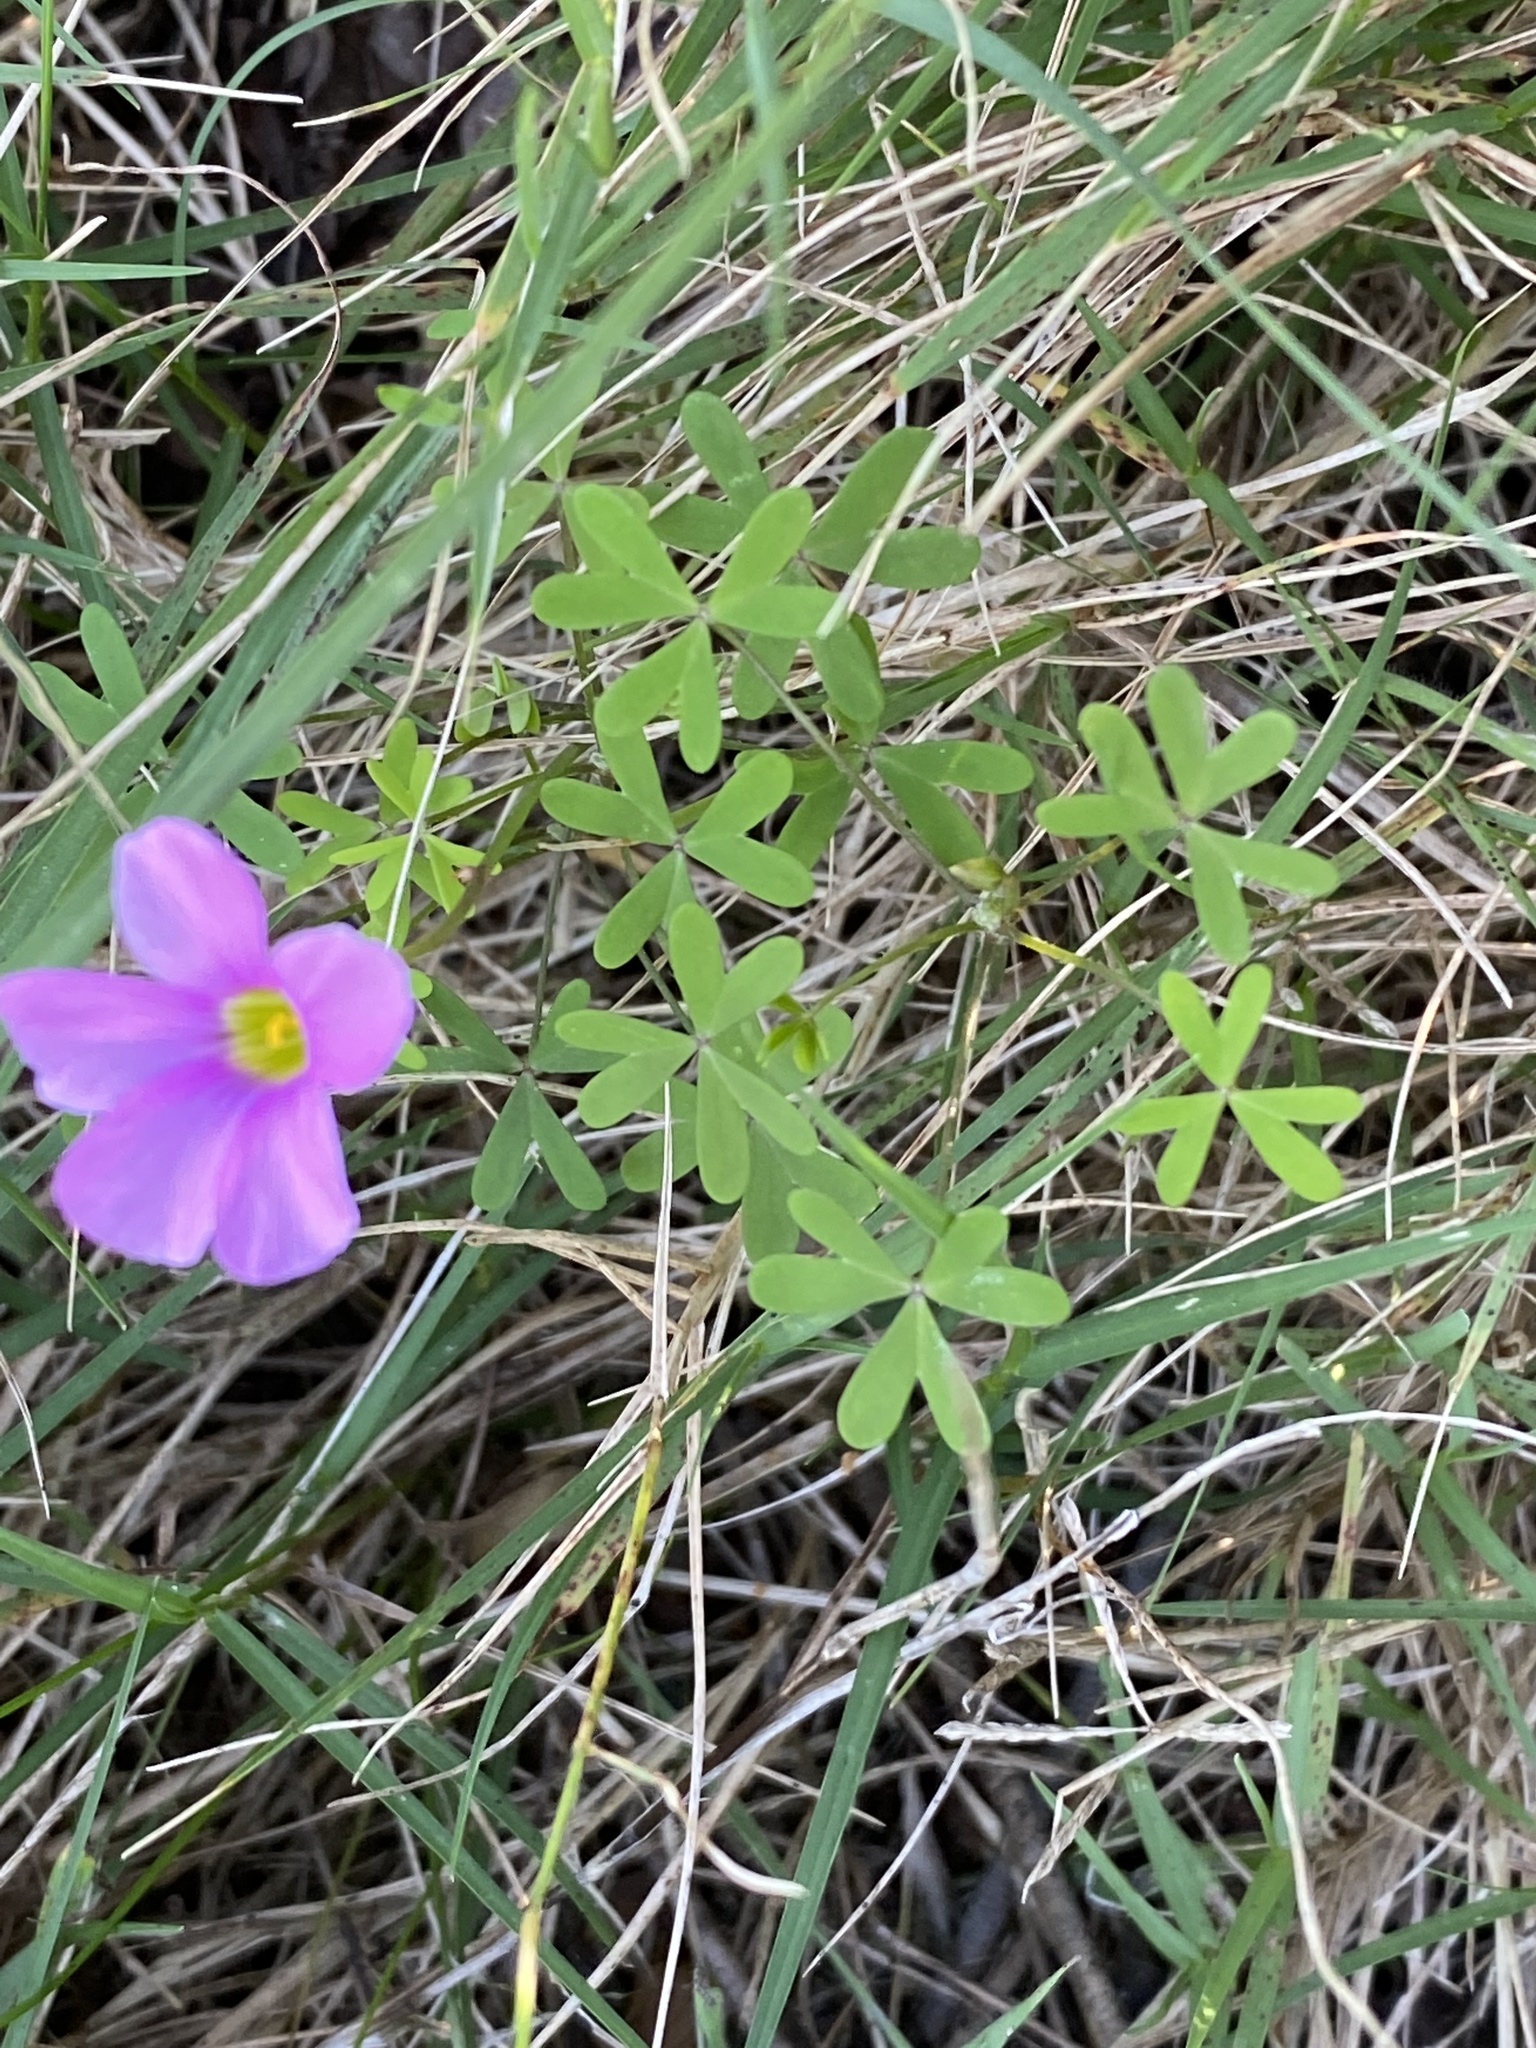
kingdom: Plantae
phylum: Tracheophyta
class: Magnoliopsida
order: Oxalidales
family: Oxalidaceae
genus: Oxalis
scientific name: Oxalis stellata
